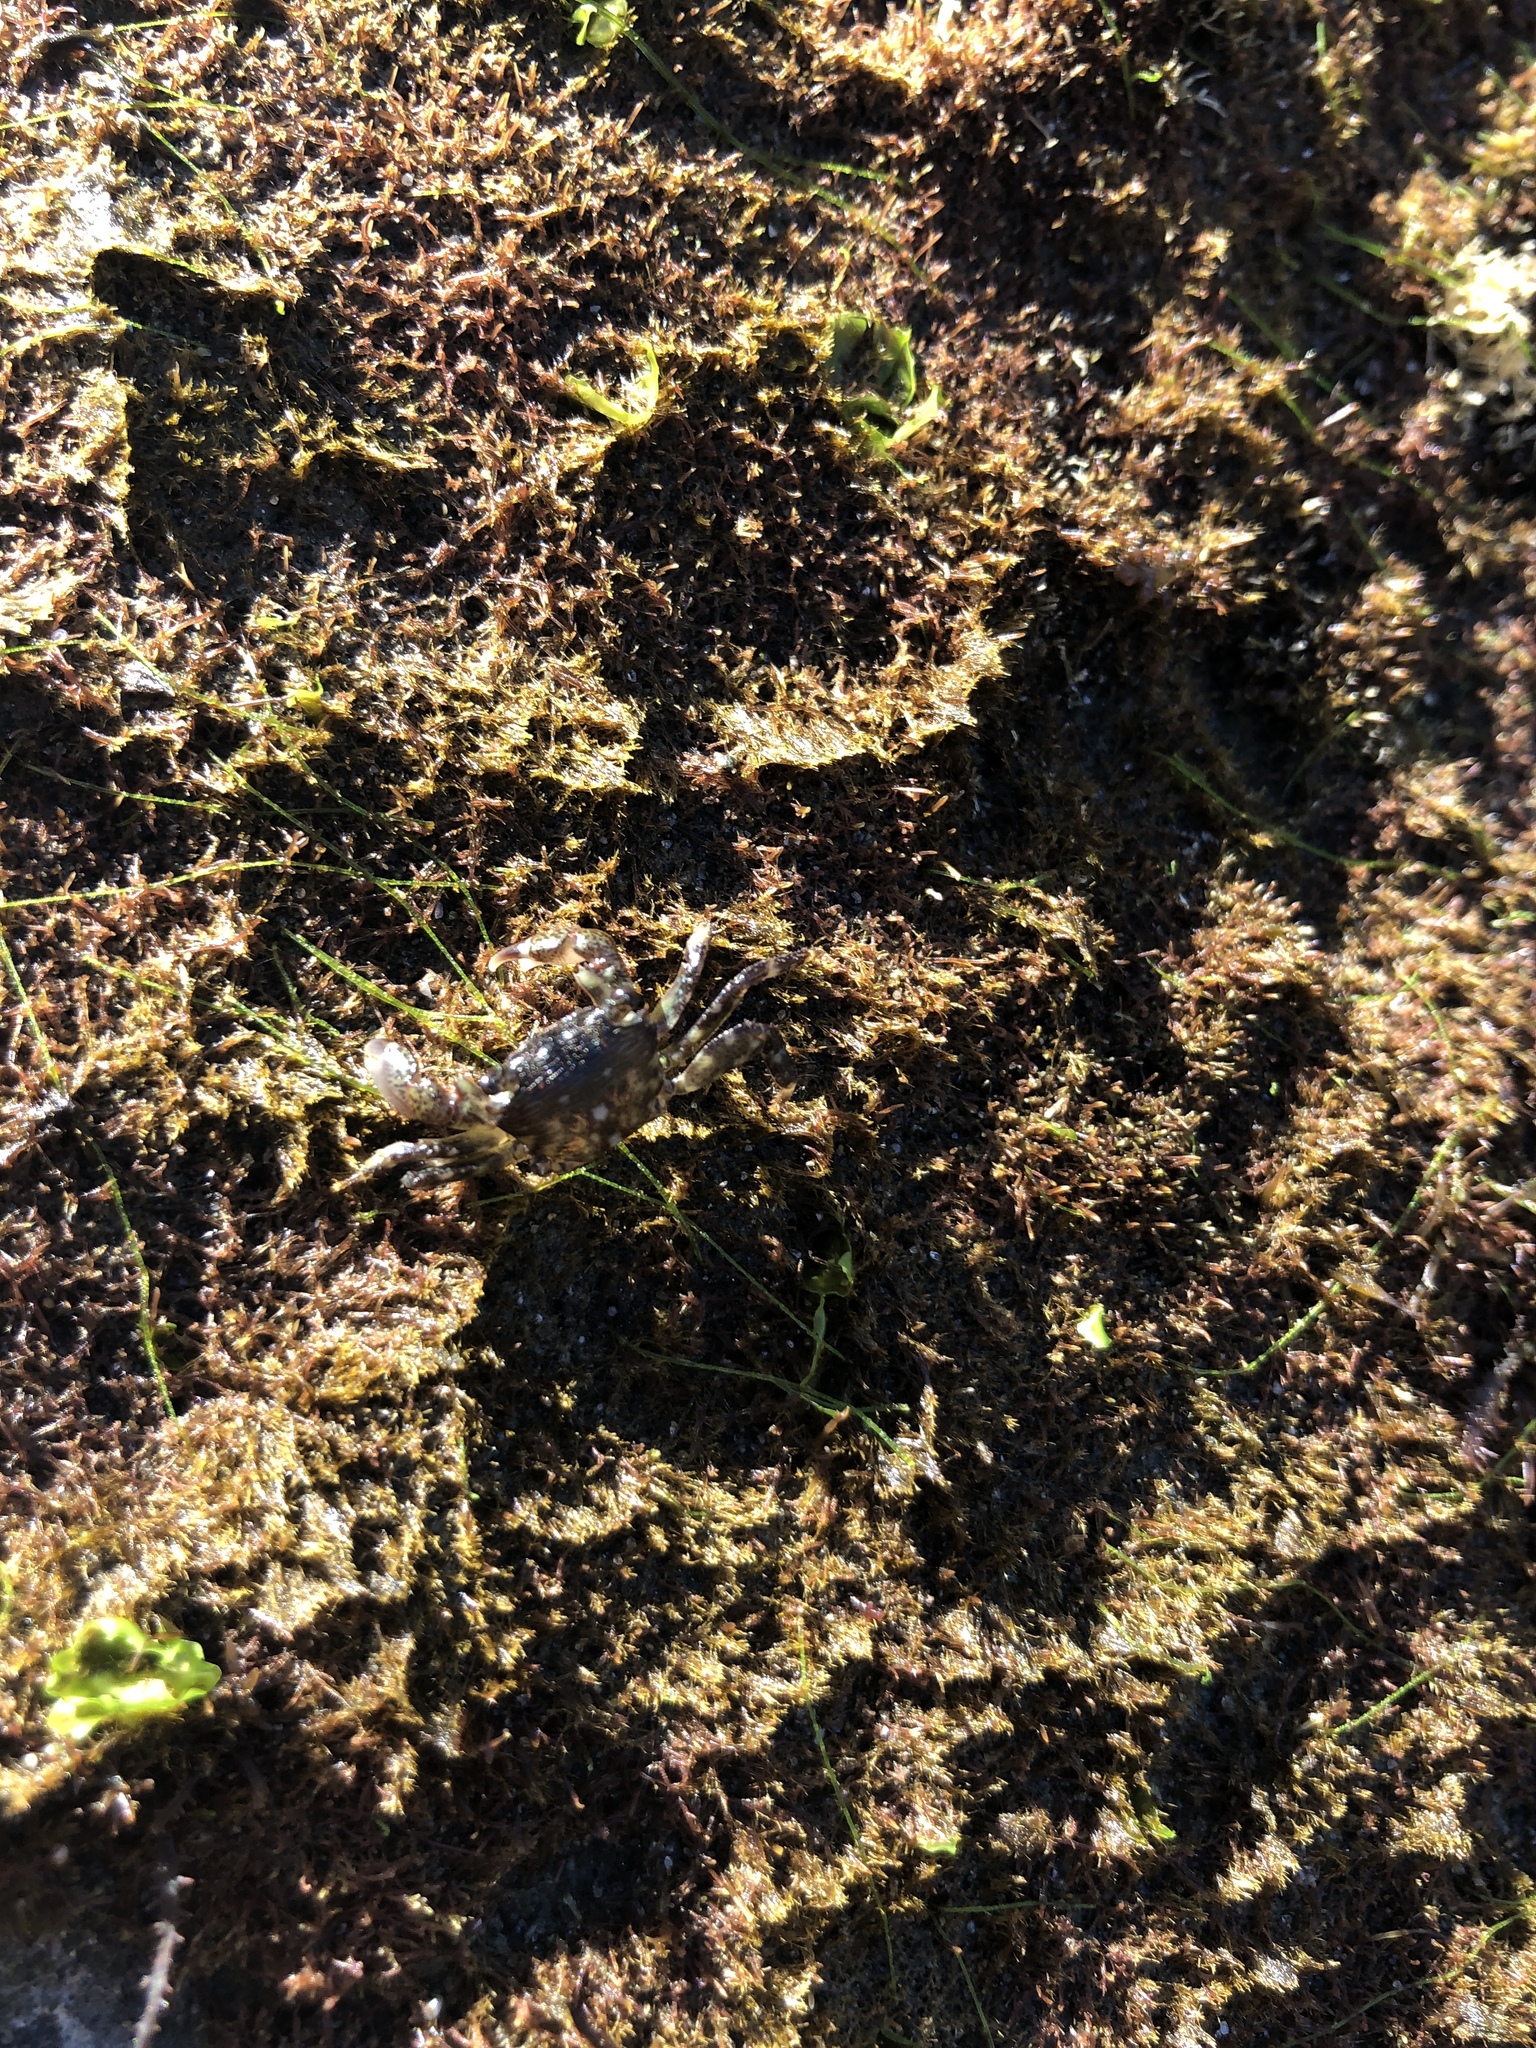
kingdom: Animalia
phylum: Arthropoda
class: Malacostraca
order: Decapoda
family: Grapsidae
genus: Pachygrapsus
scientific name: Pachygrapsus crassipes
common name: Striped shore crab
